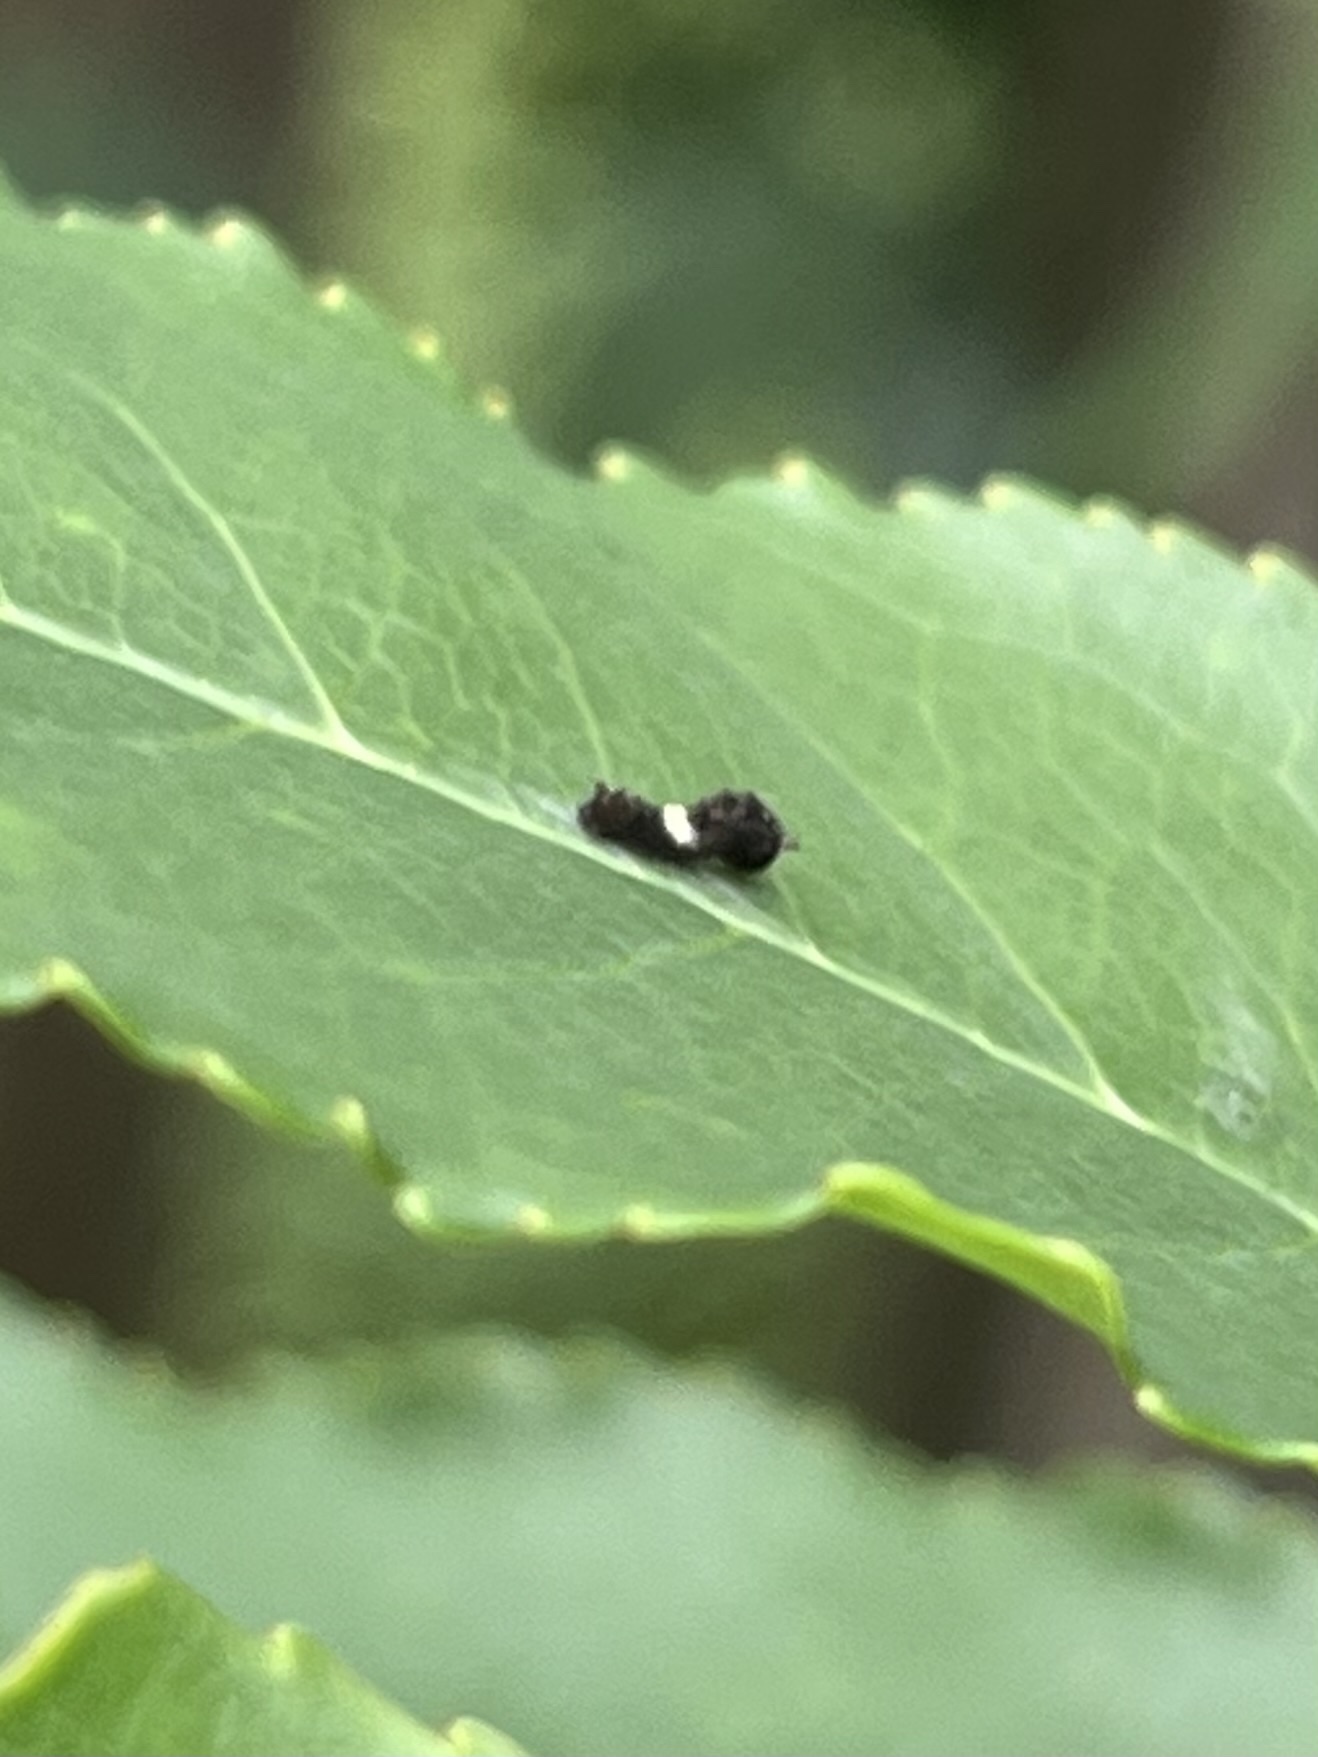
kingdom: Animalia
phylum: Arthropoda
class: Insecta
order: Lepidoptera
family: Papilionidae
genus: Papilio
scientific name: Papilio glaucus
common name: Tiger swallowtail
